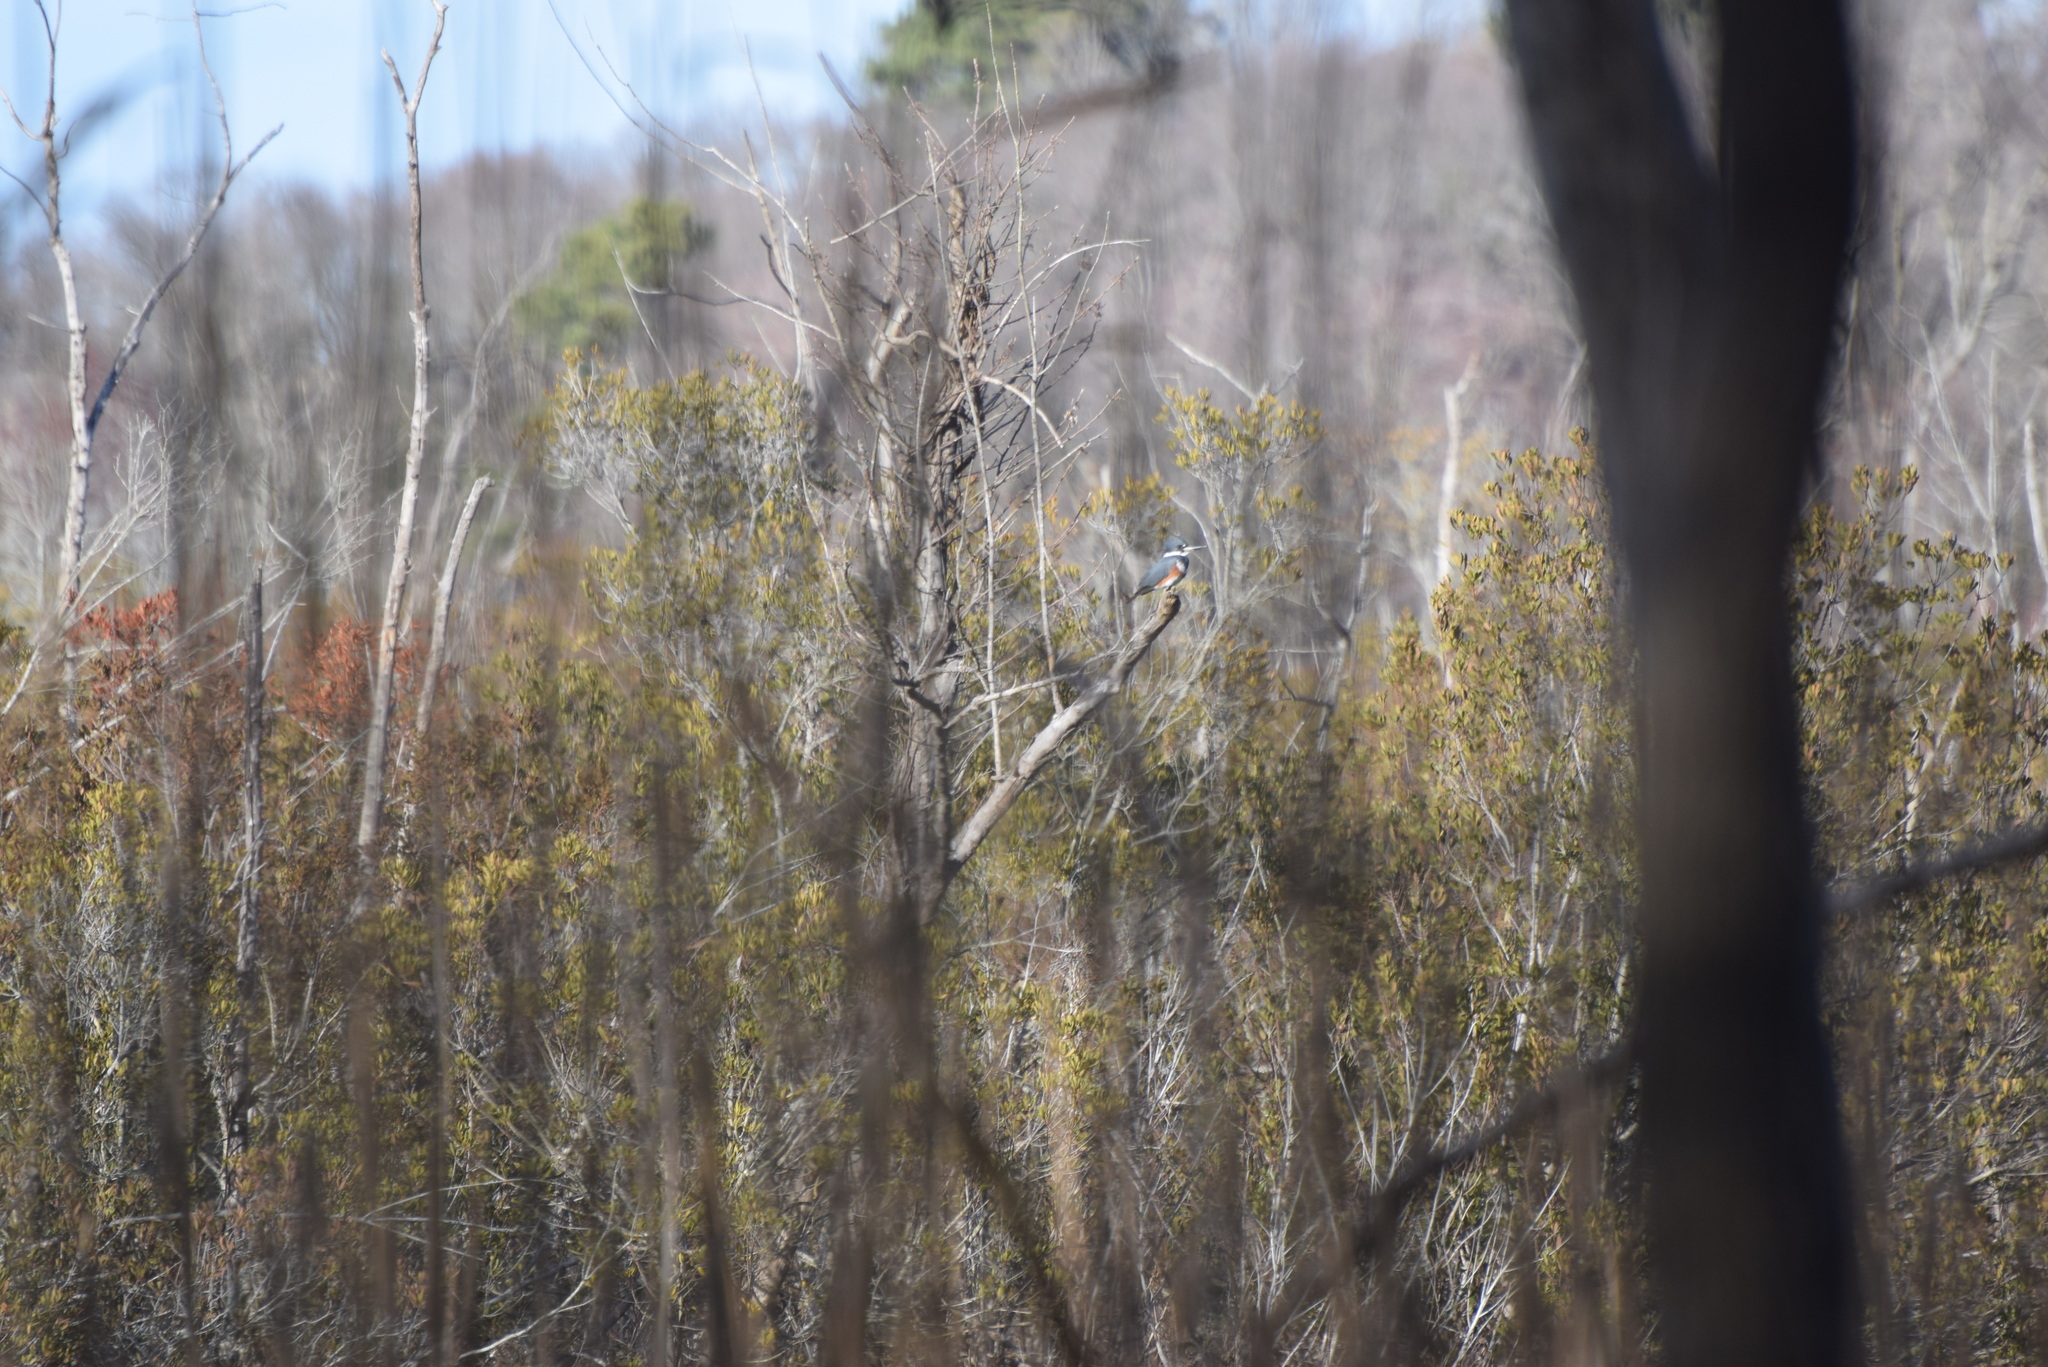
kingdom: Animalia
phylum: Chordata
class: Aves
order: Coraciiformes
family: Alcedinidae
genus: Megaceryle
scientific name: Megaceryle alcyon
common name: Belted kingfisher
